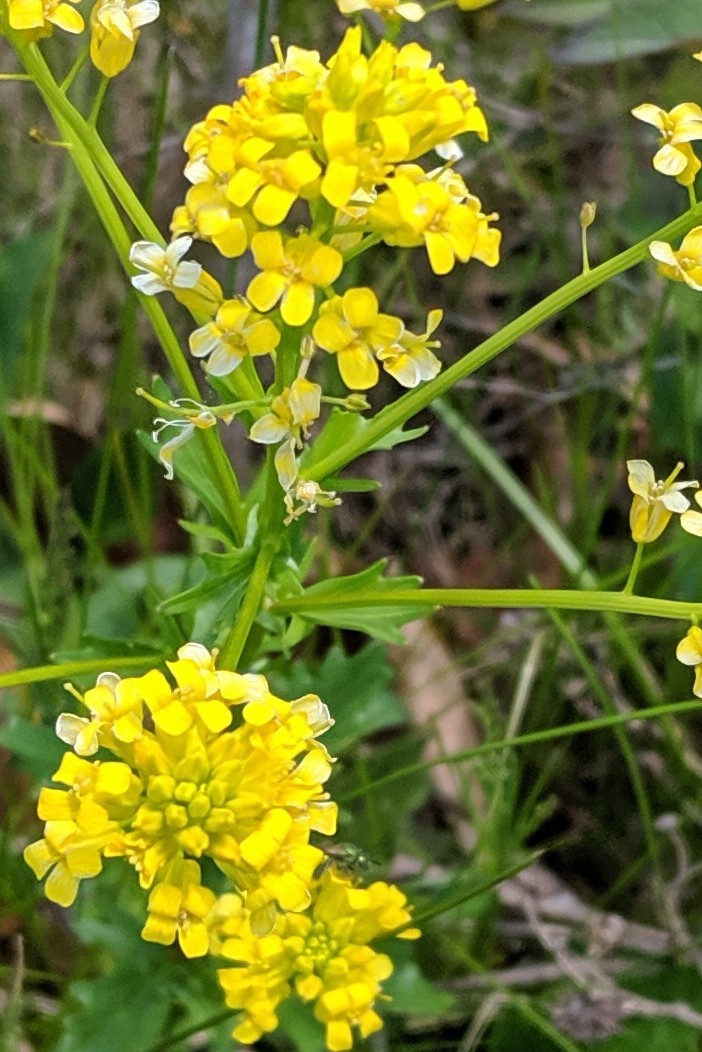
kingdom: Plantae
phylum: Tracheophyta
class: Magnoliopsida
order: Brassicales
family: Brassicaceae
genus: Barbarea
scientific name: Barbarea vulgaris
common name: Cressy-greens
